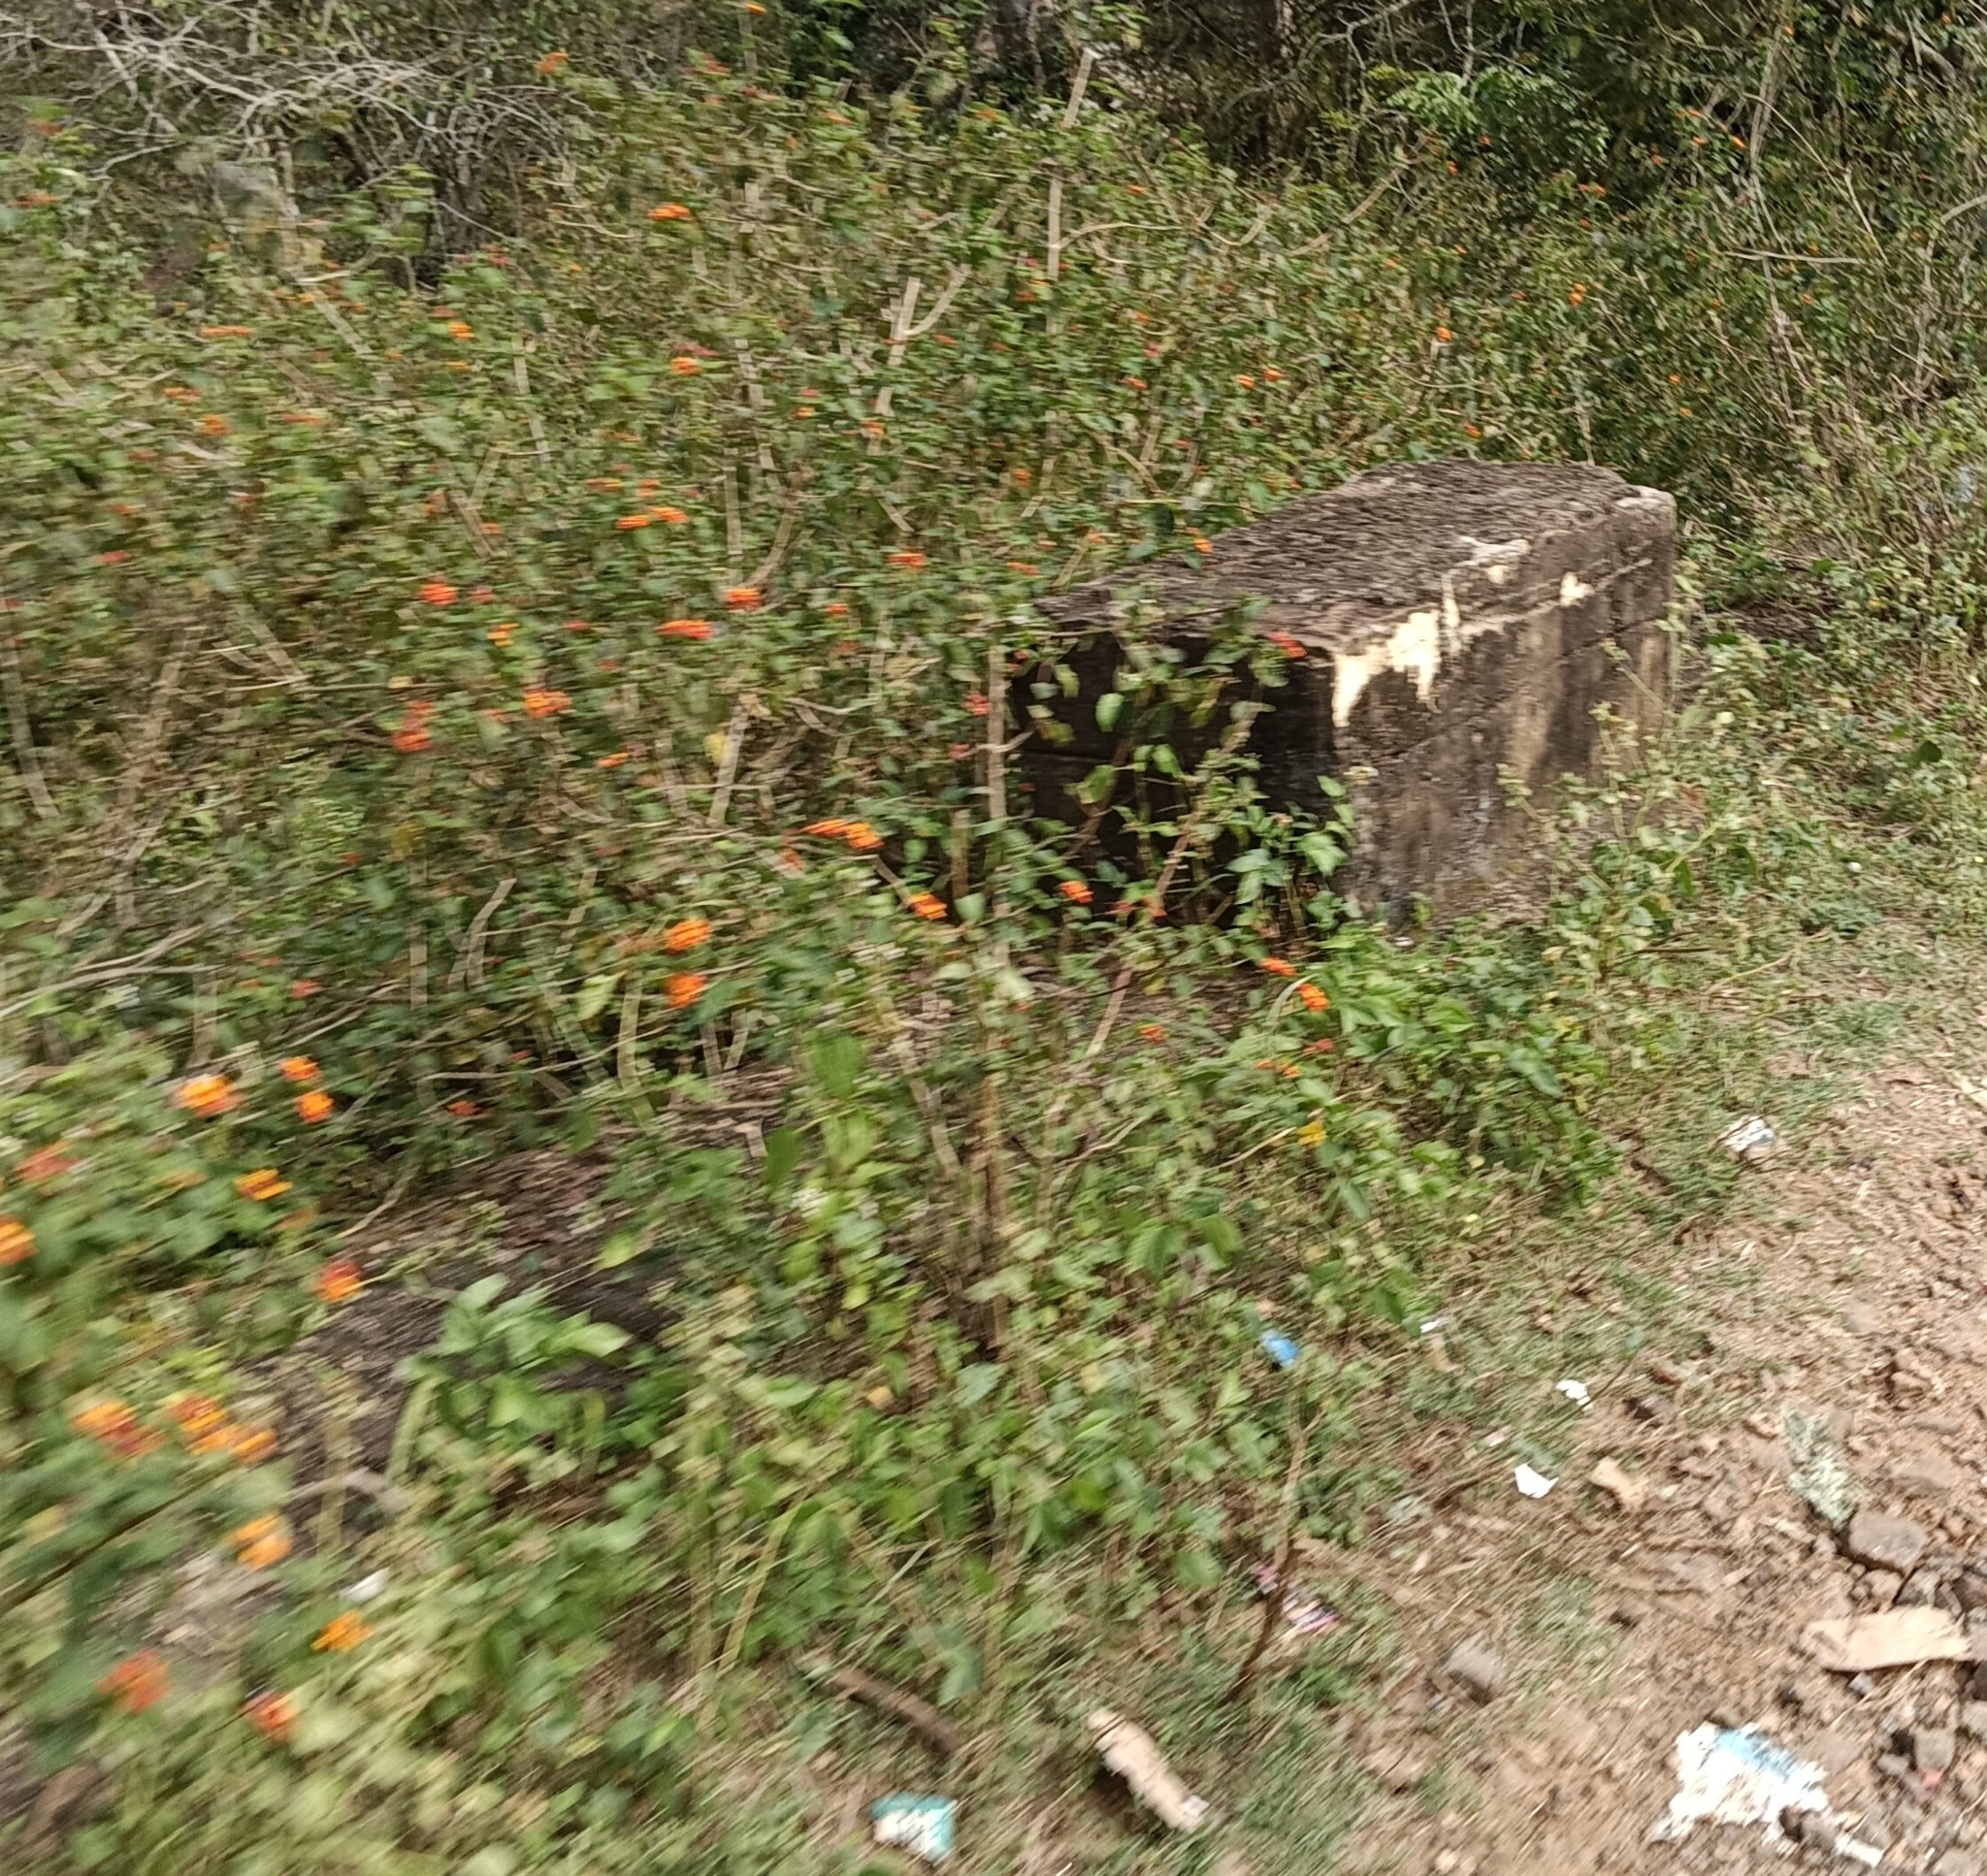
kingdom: Plantae
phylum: Tracheophyta
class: Magnoliopsida
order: Lamiales
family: Verbenaceae
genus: Lantana
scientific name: Lantana camara
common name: Lantana
